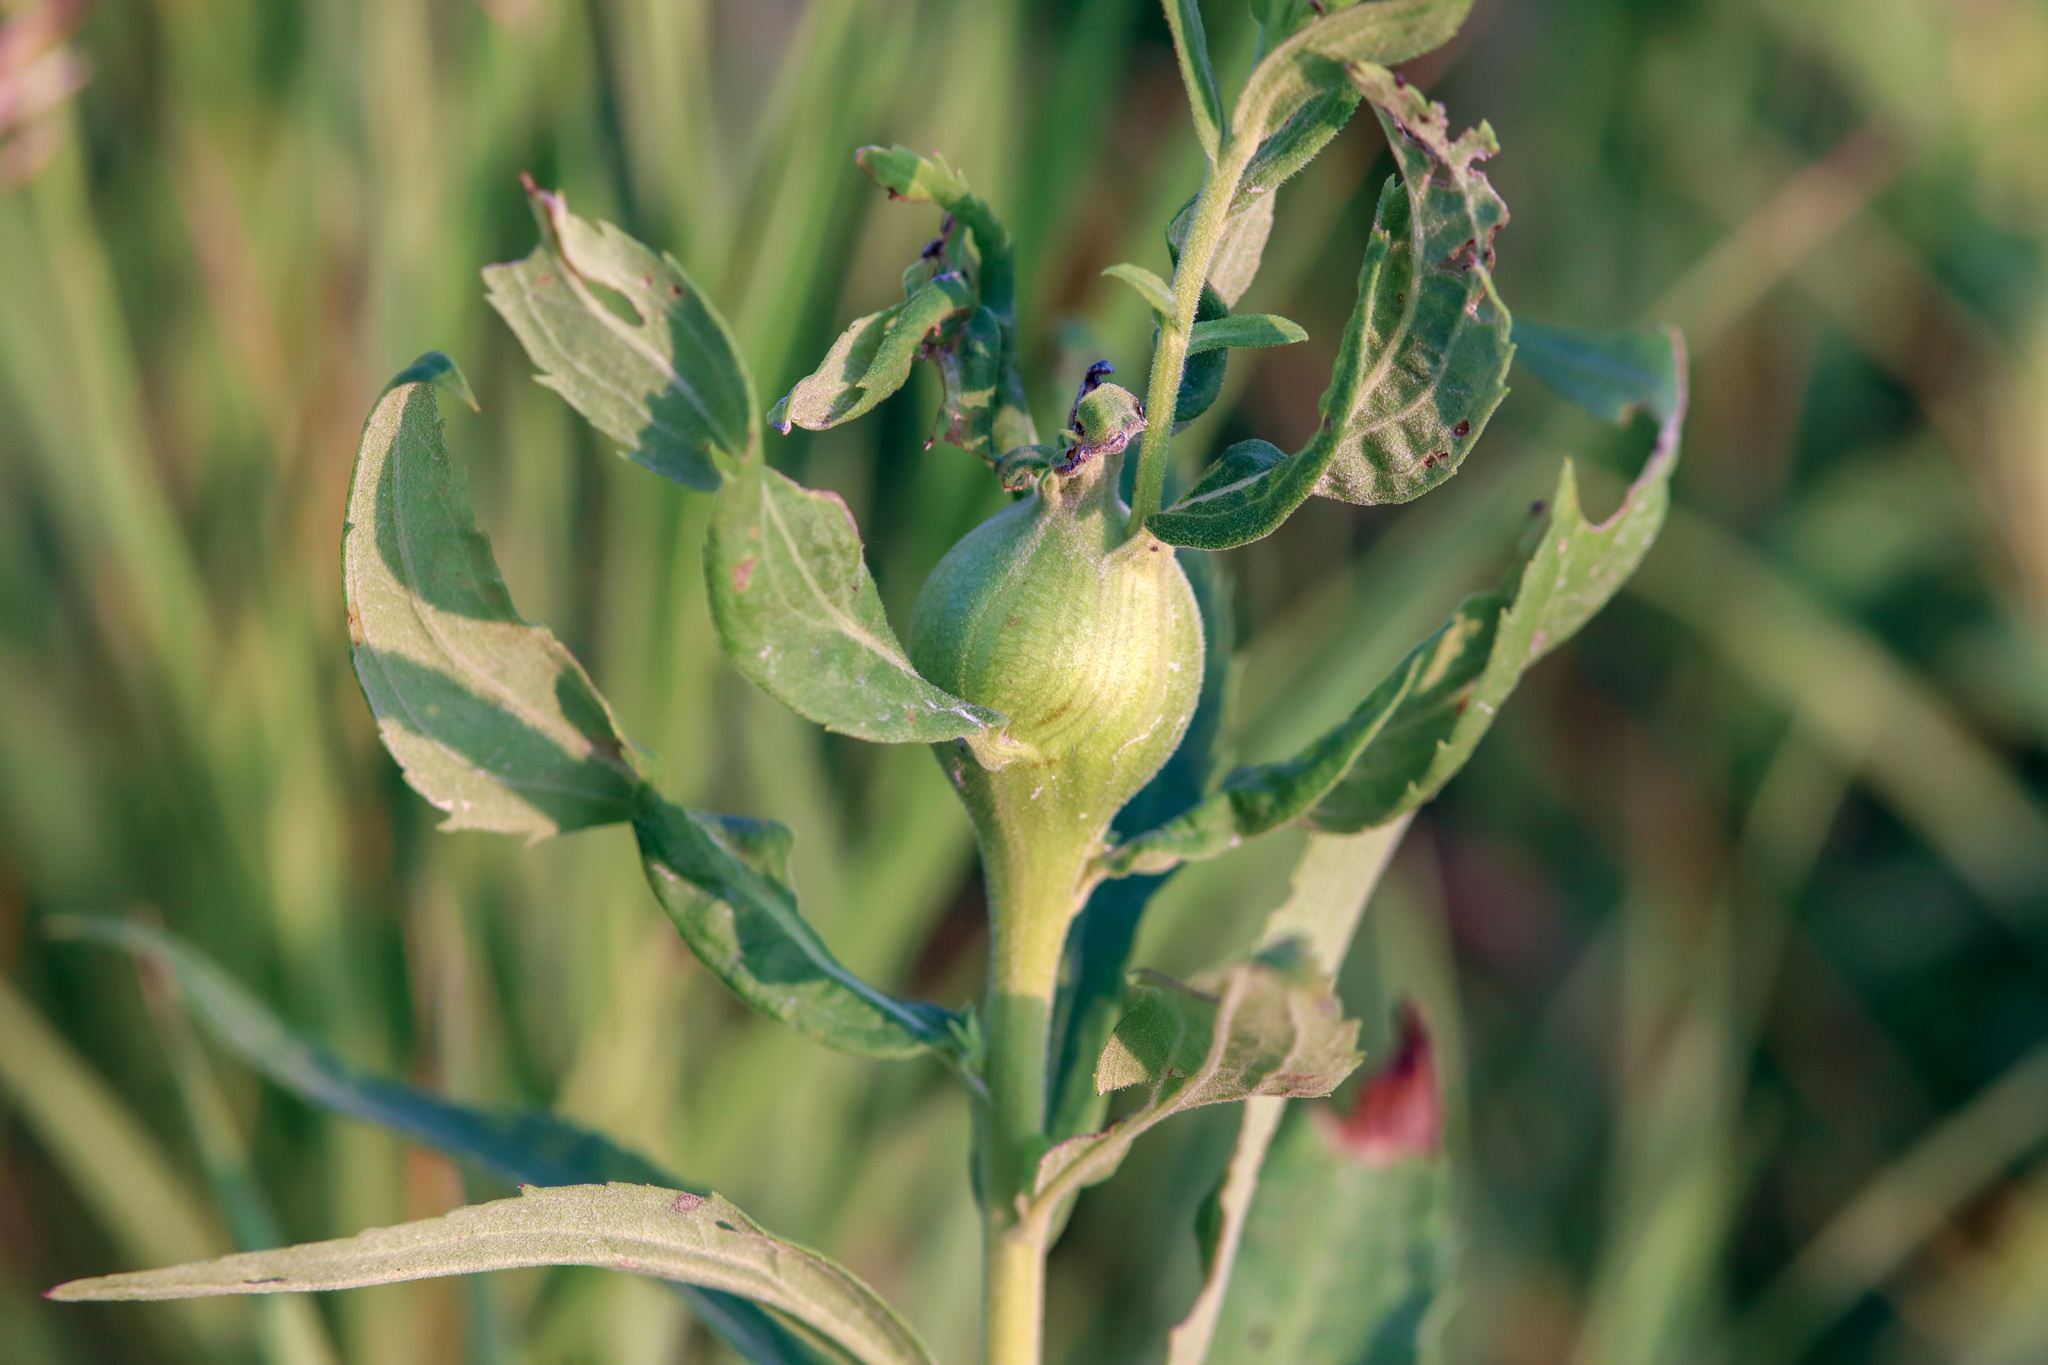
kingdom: Animalia
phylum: Arthropoda
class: Insecta
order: Diptera
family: Tephritidae
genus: Eurosta
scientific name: Eurosta solidaginis
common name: Goldenrod gall fly
